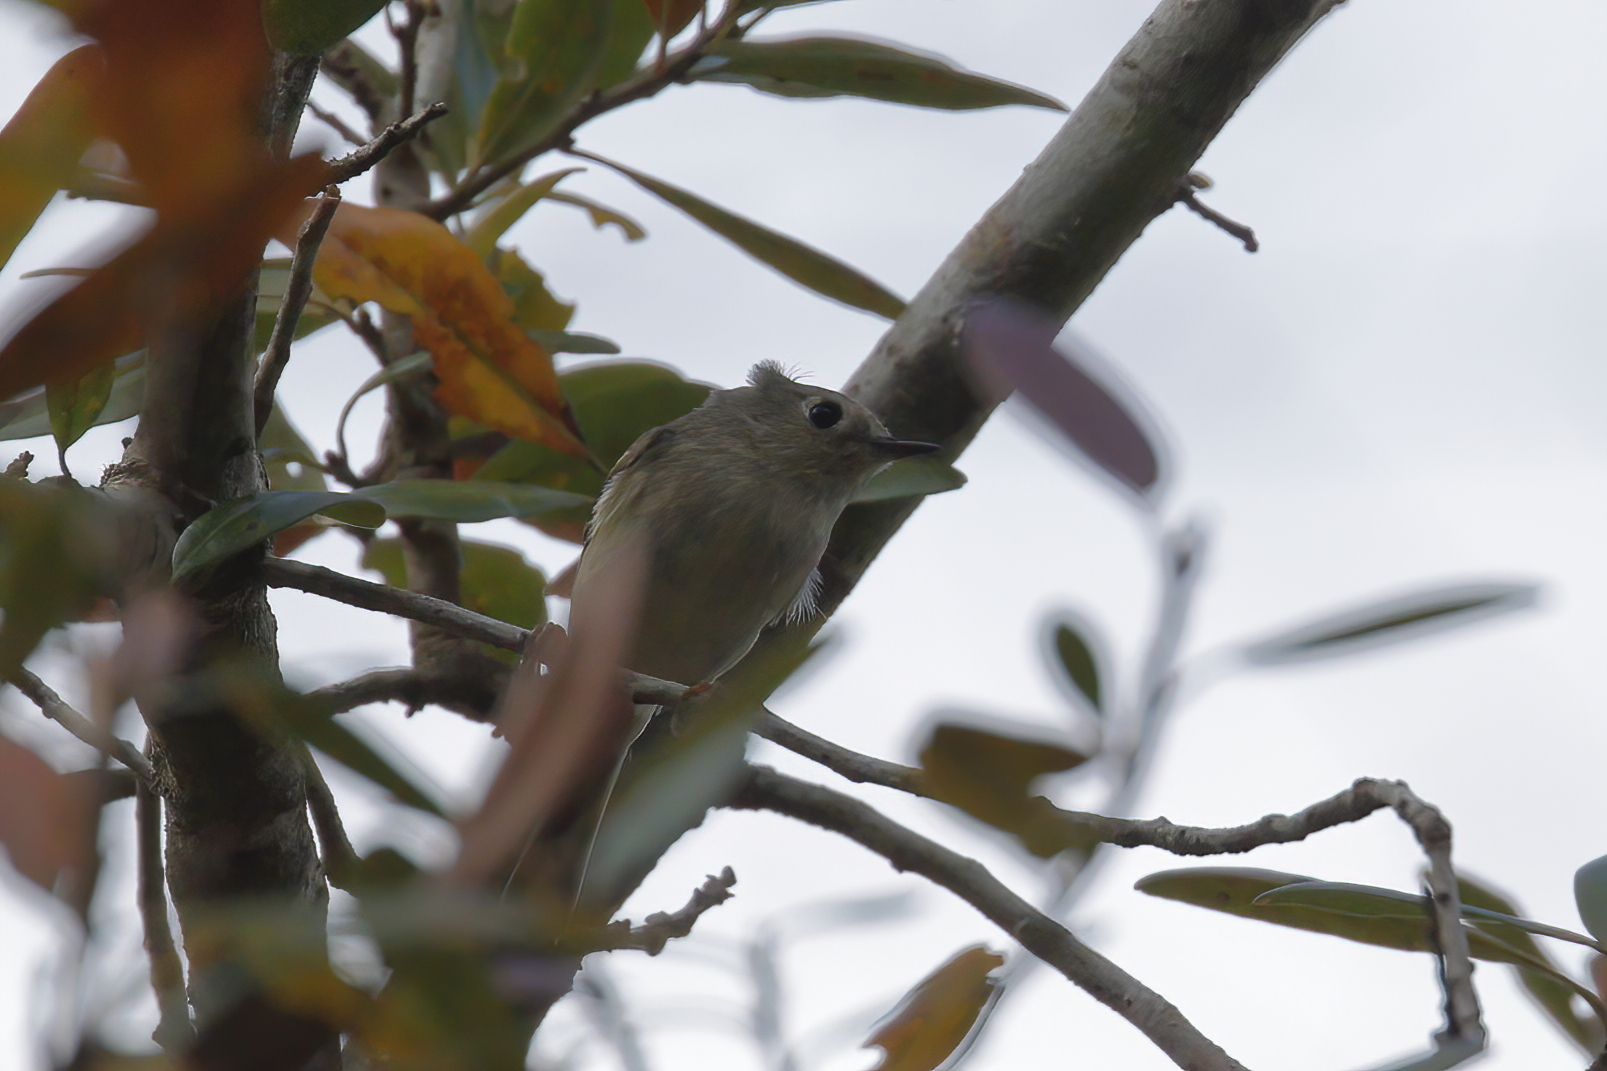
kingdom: Animalia
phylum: Chordata
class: Aves
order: Passeriformes
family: Regulidae
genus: Regulus
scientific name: Regulus calendula
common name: Ruby-crowned kinglet
